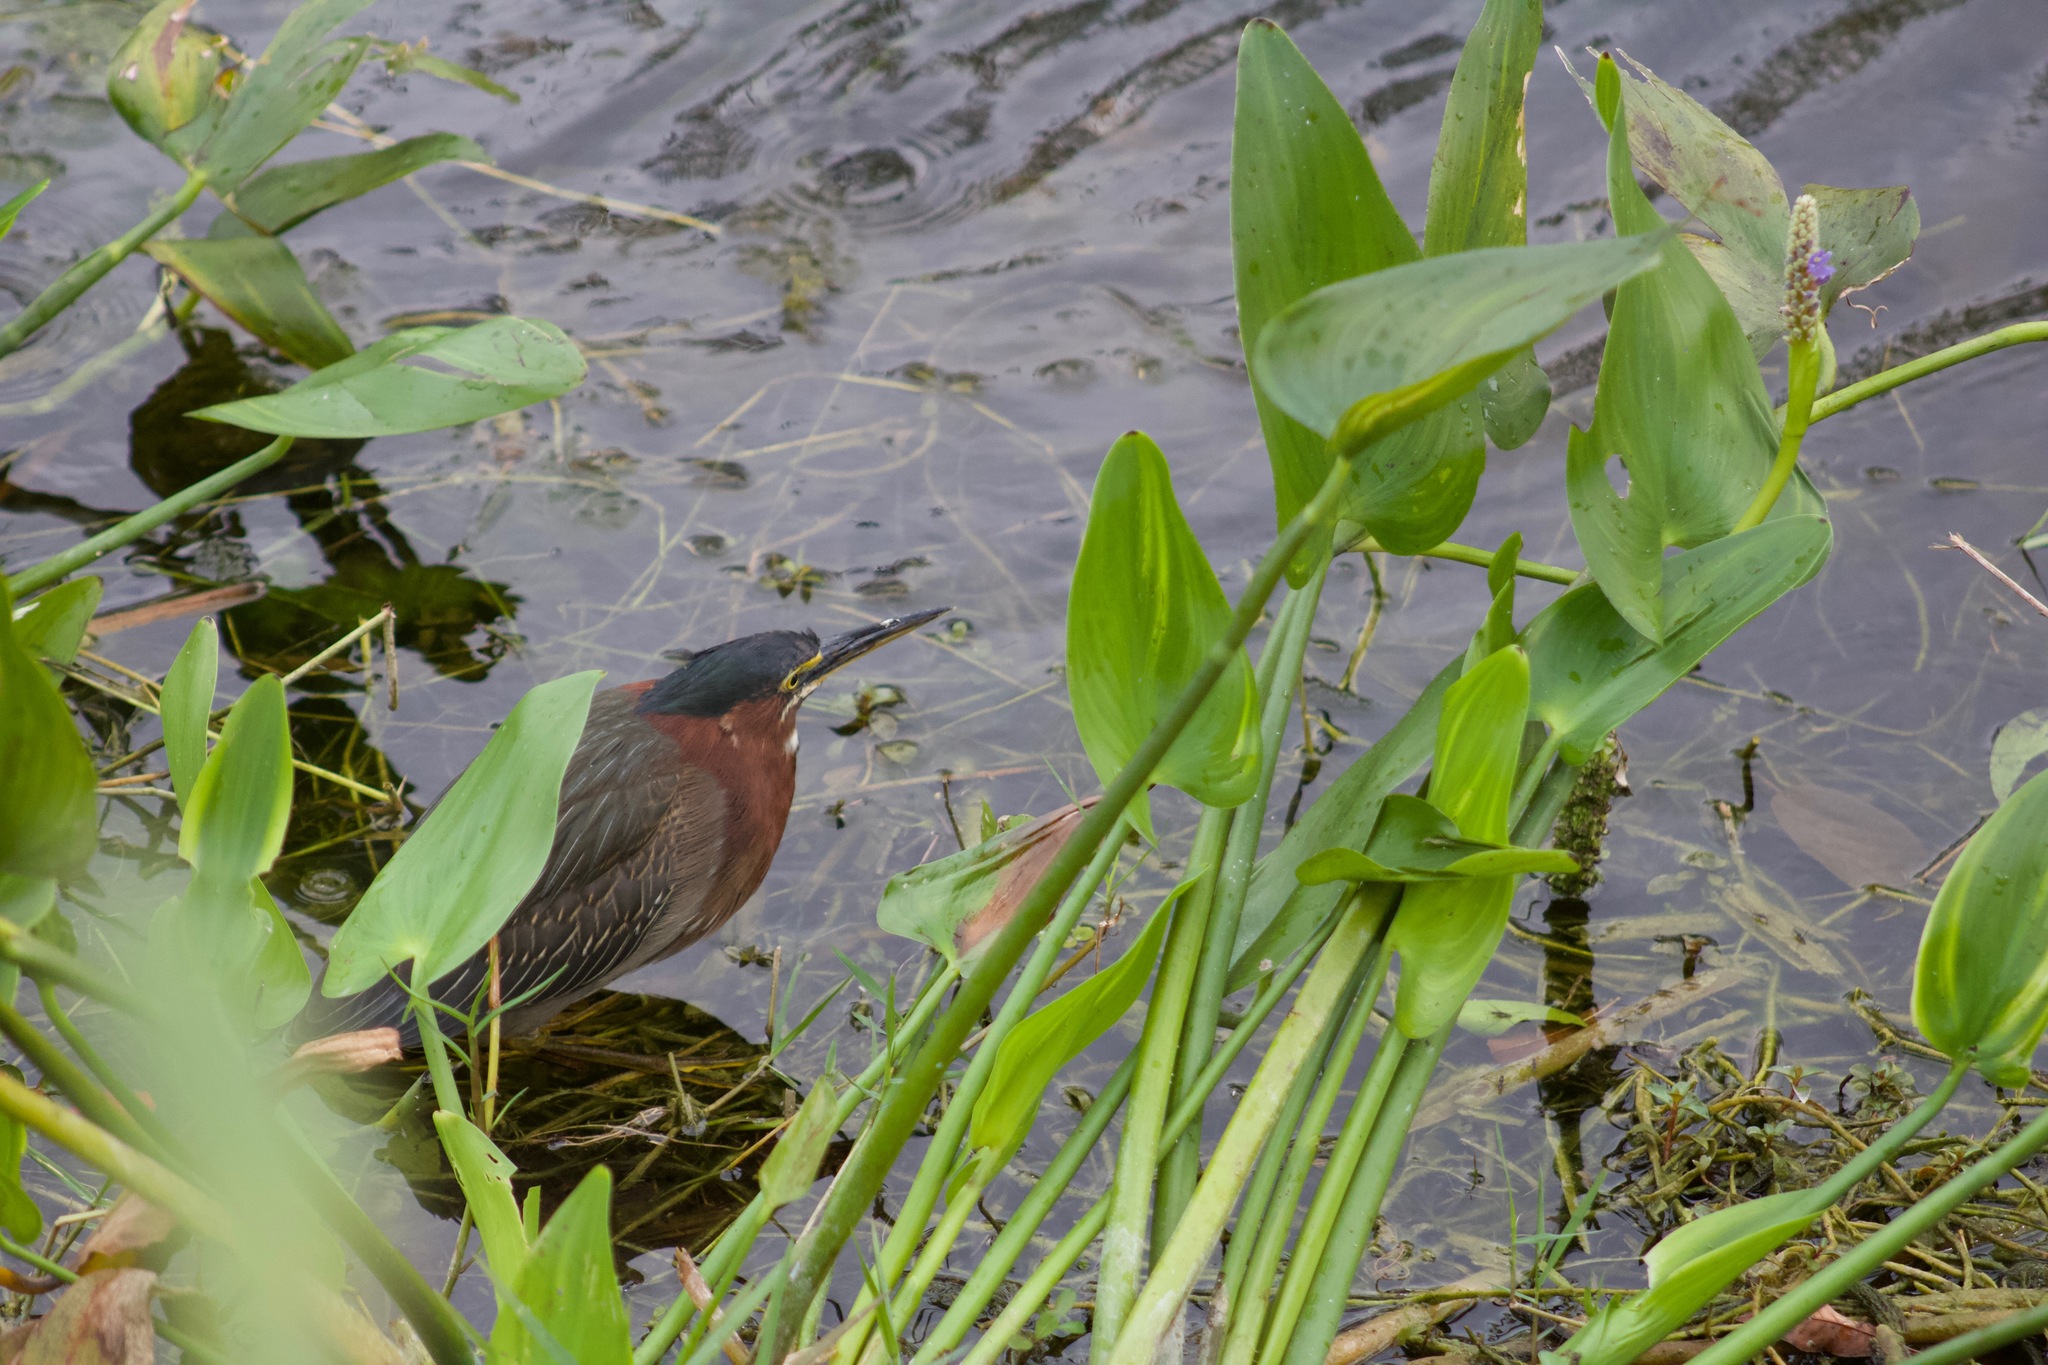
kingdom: Animalia
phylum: Chordata
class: Aves
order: Pelecaniformes
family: Ardeidae
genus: Butorides
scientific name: Butorides virescens
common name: Green heron
